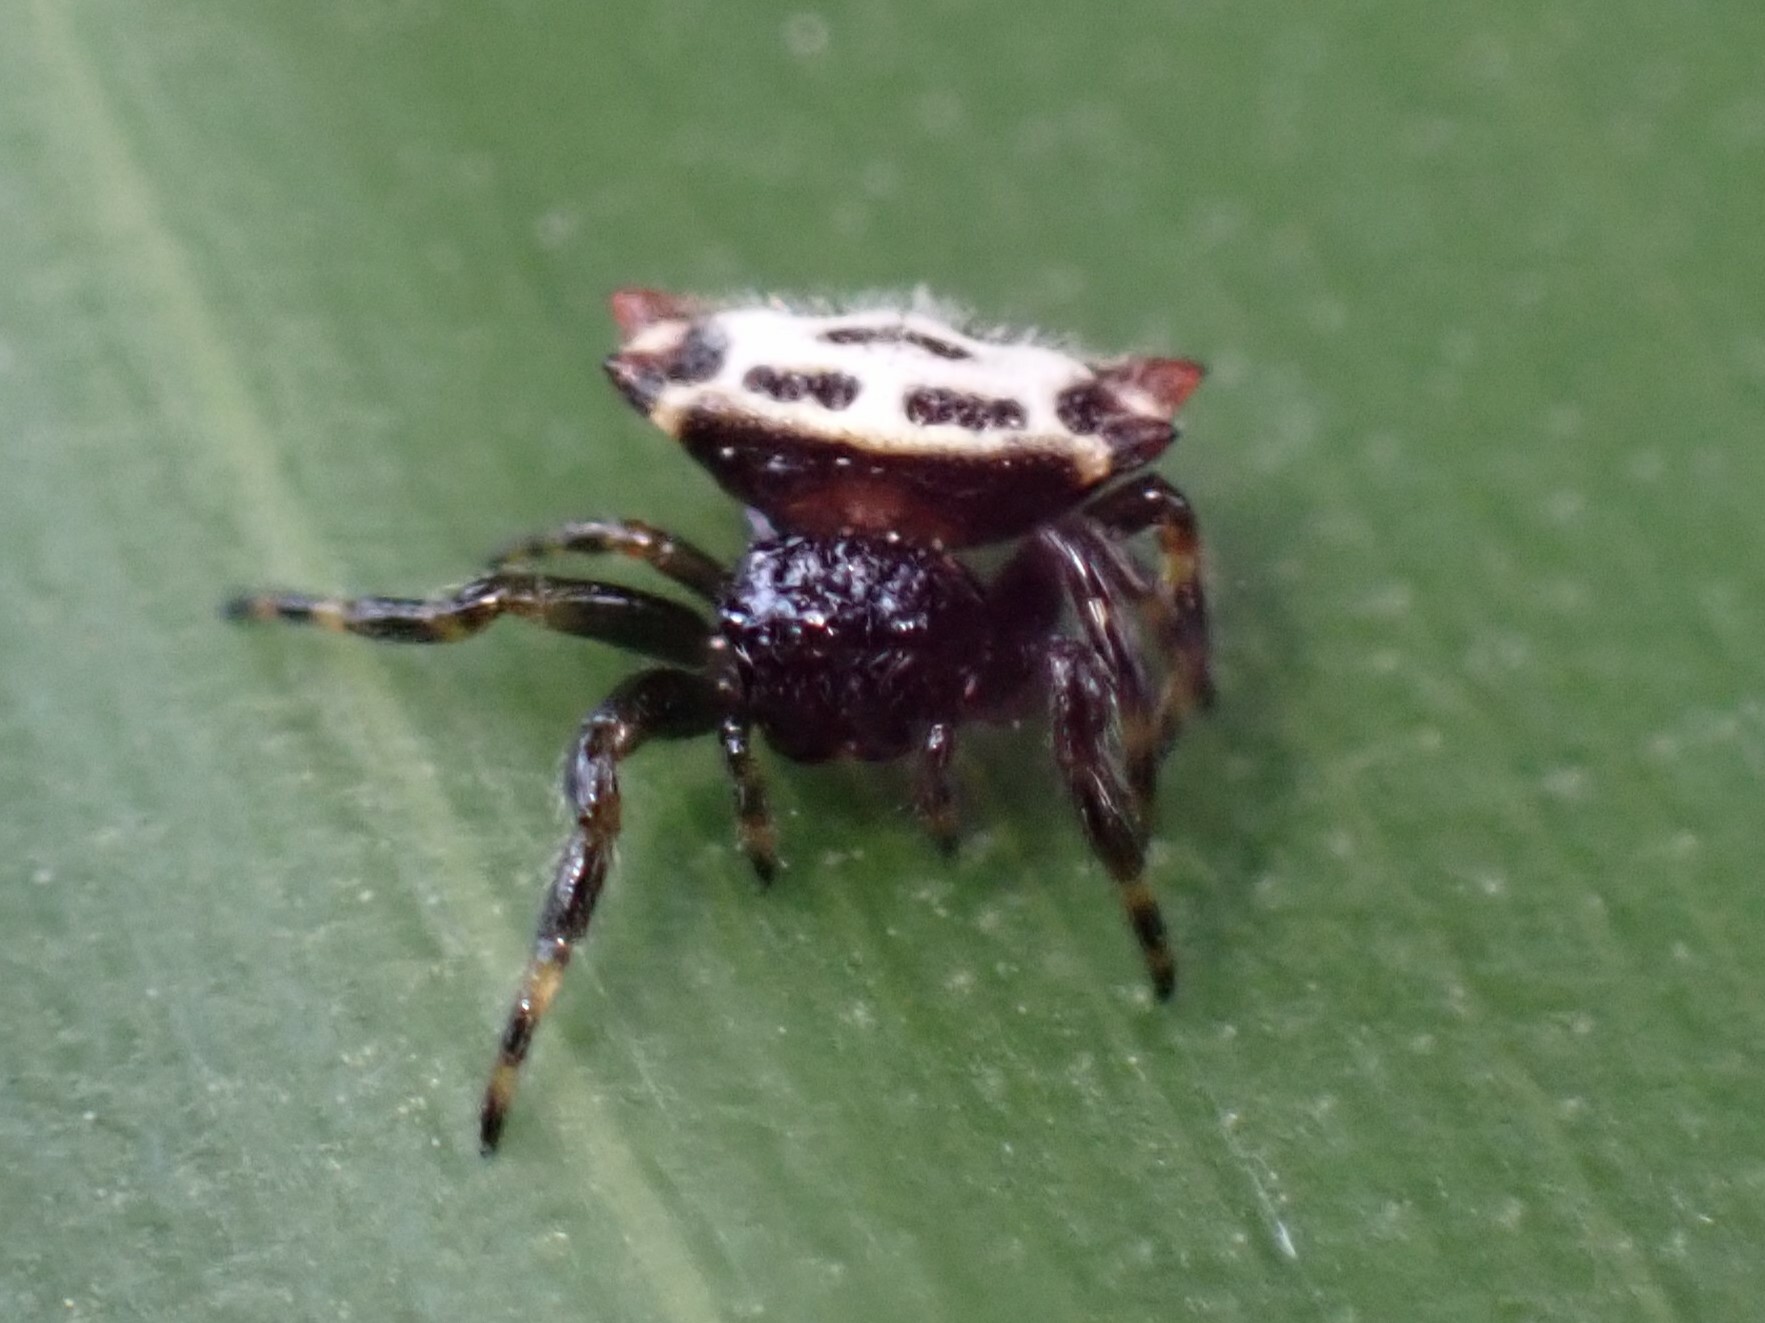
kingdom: Animalia
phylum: Arthropoda
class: Arachnida
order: Araneae
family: Araneidae
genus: Gasteracantha
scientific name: Gasteracantha cancriformis
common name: Orb weavers
